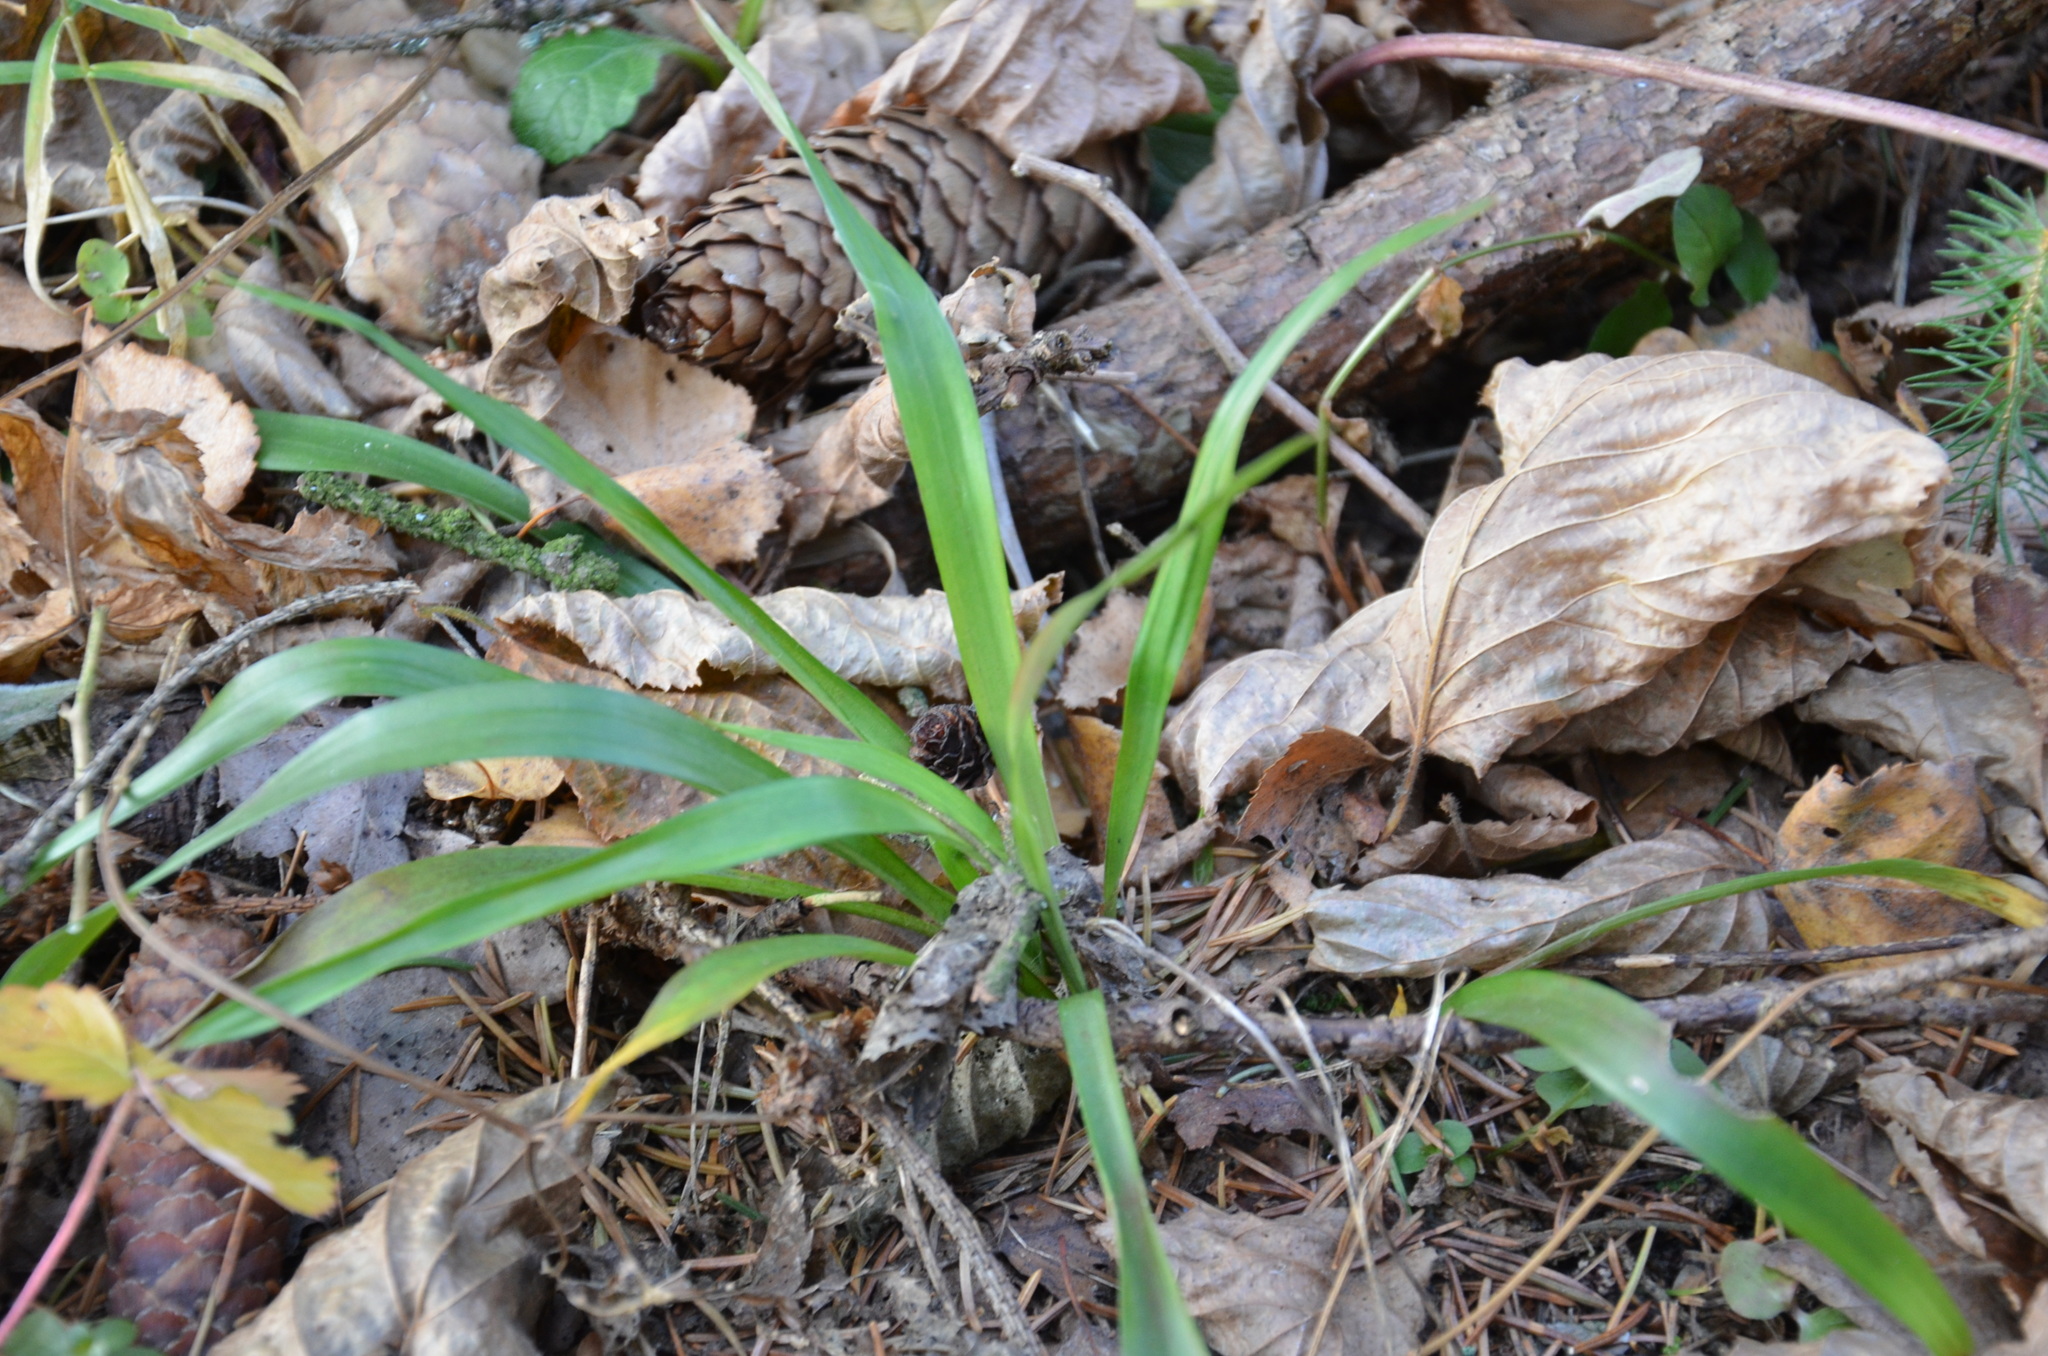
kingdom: Plantae
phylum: Tracheophyta
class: Liliopsida
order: Poales
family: Juncaceae
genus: Luzula
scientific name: Luzula pilosa
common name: Hairy wood-rush
